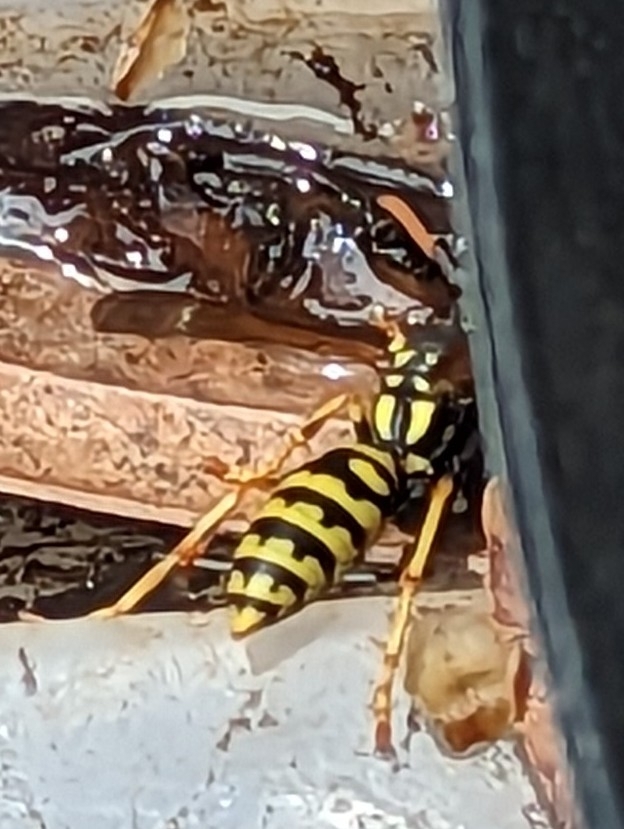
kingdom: Animalia
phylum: Arthropoda
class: Insecta
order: Hymenoptera
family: Eumenidae
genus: Polistes
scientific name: Polistes dominula
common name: Paper wasp
